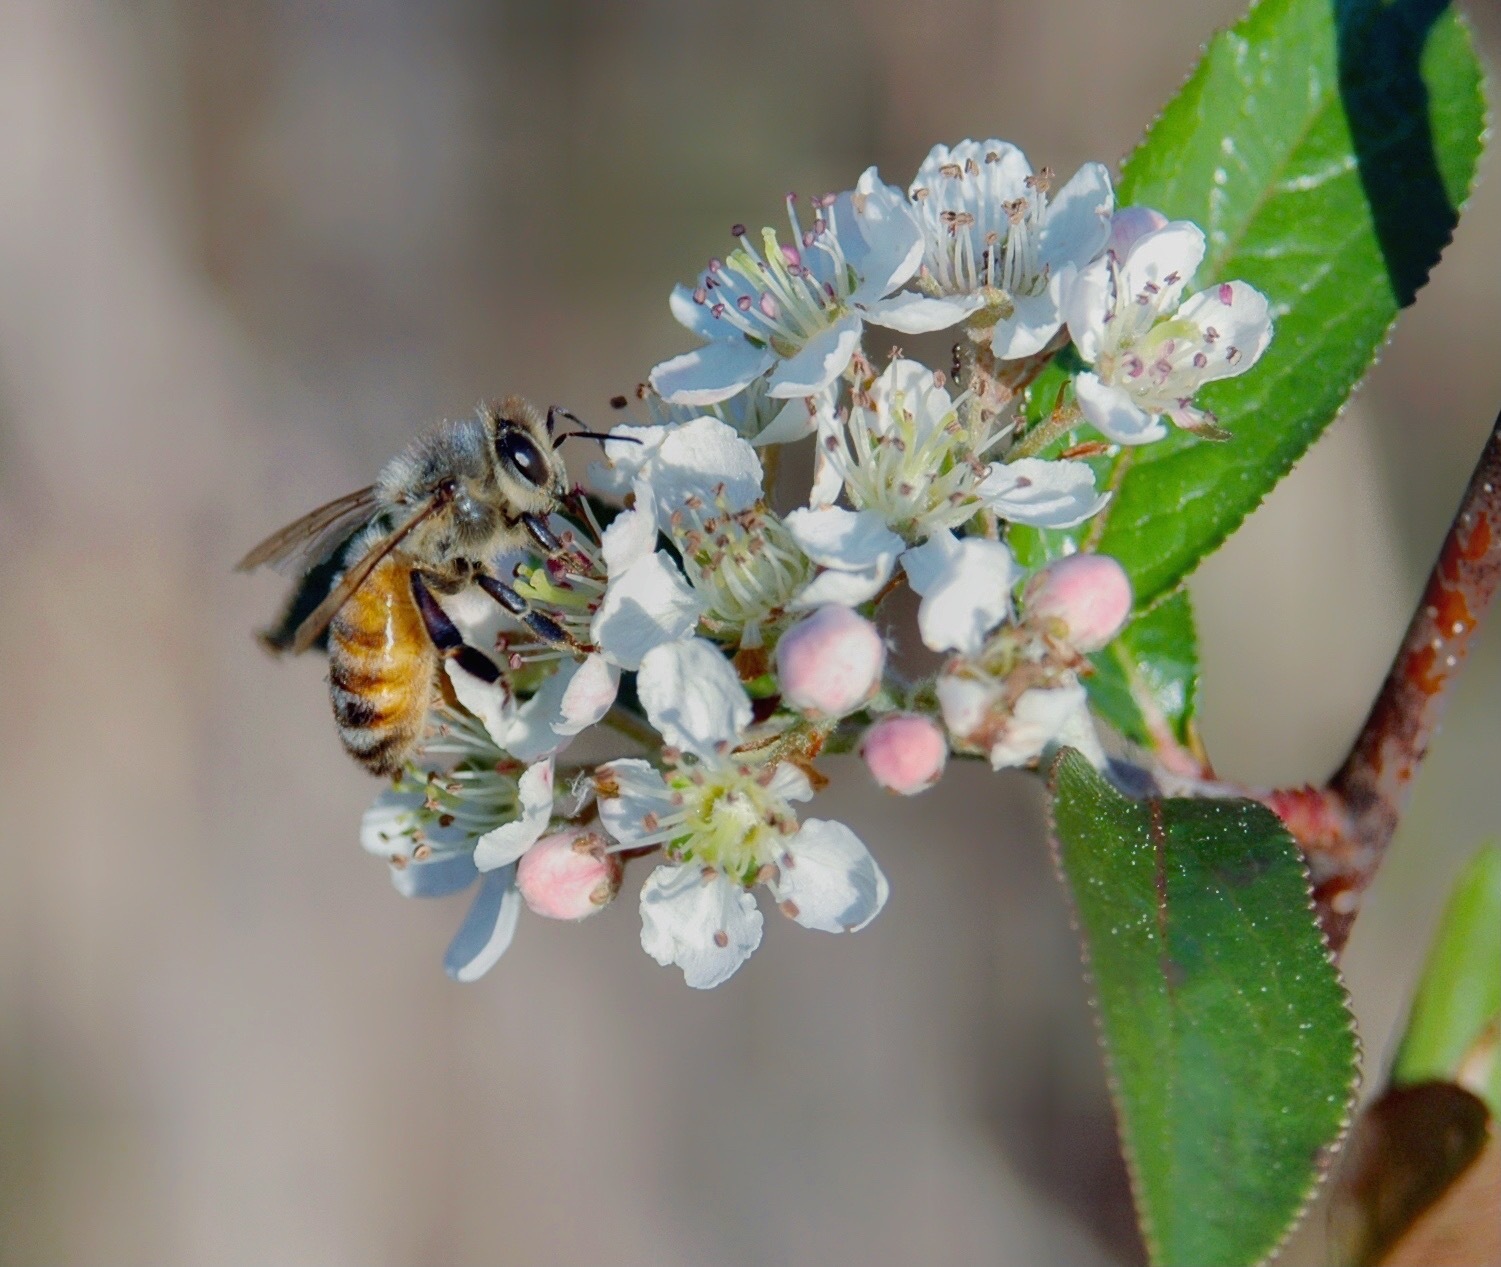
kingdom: Animalia
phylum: Arthropoda
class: Insecta
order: Hymenoptera
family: Apidae
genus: Apis
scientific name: Apis mellifera
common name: Honey bee
